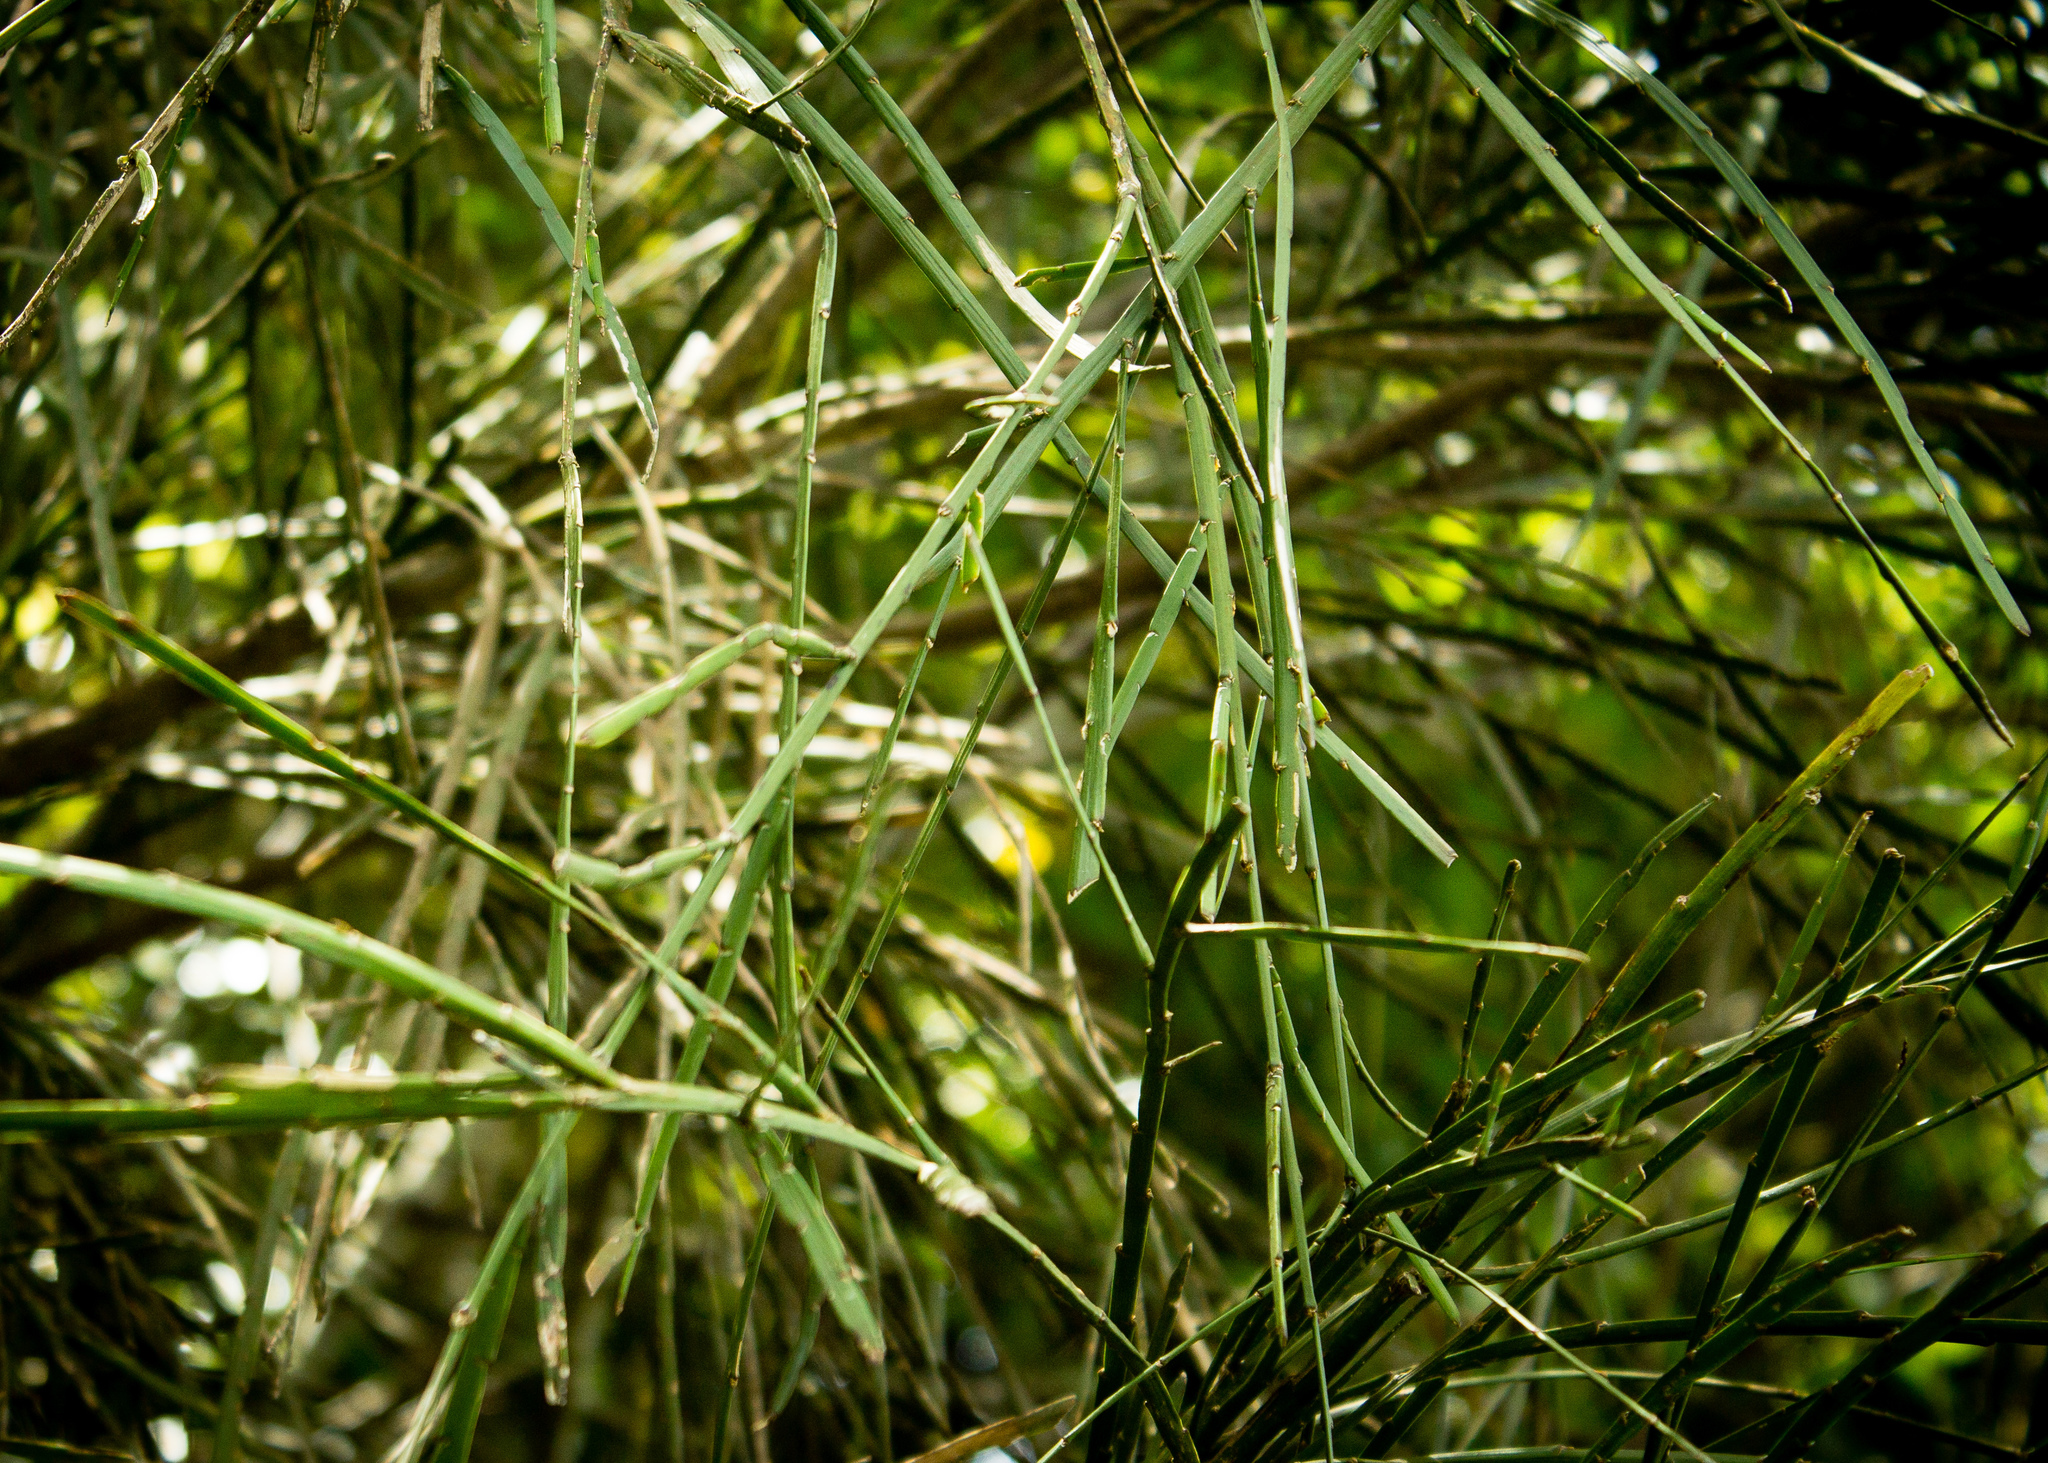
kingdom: Plantae
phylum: Tracheophyta
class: Magnoliopsida
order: Fabales
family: Fabaceae
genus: Carmichaelia
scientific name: Carmichaelia australis
